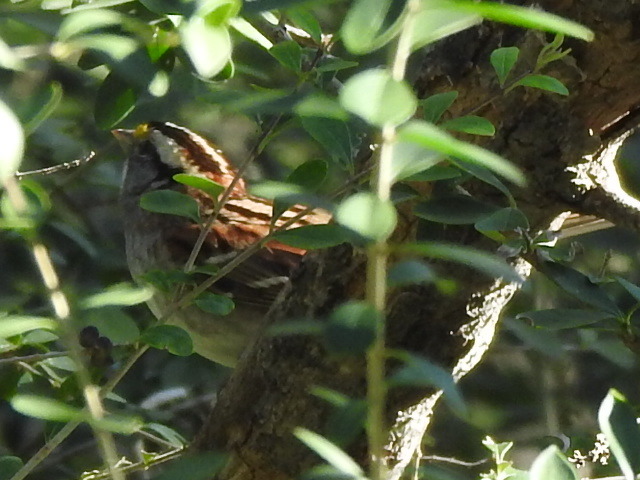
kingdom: Animalia
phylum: Chordata
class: Aves
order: Passeriformes
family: Passerellidae
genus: Zonotrichia
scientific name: Zonotrichia albicollis
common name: White-throated sparrow
